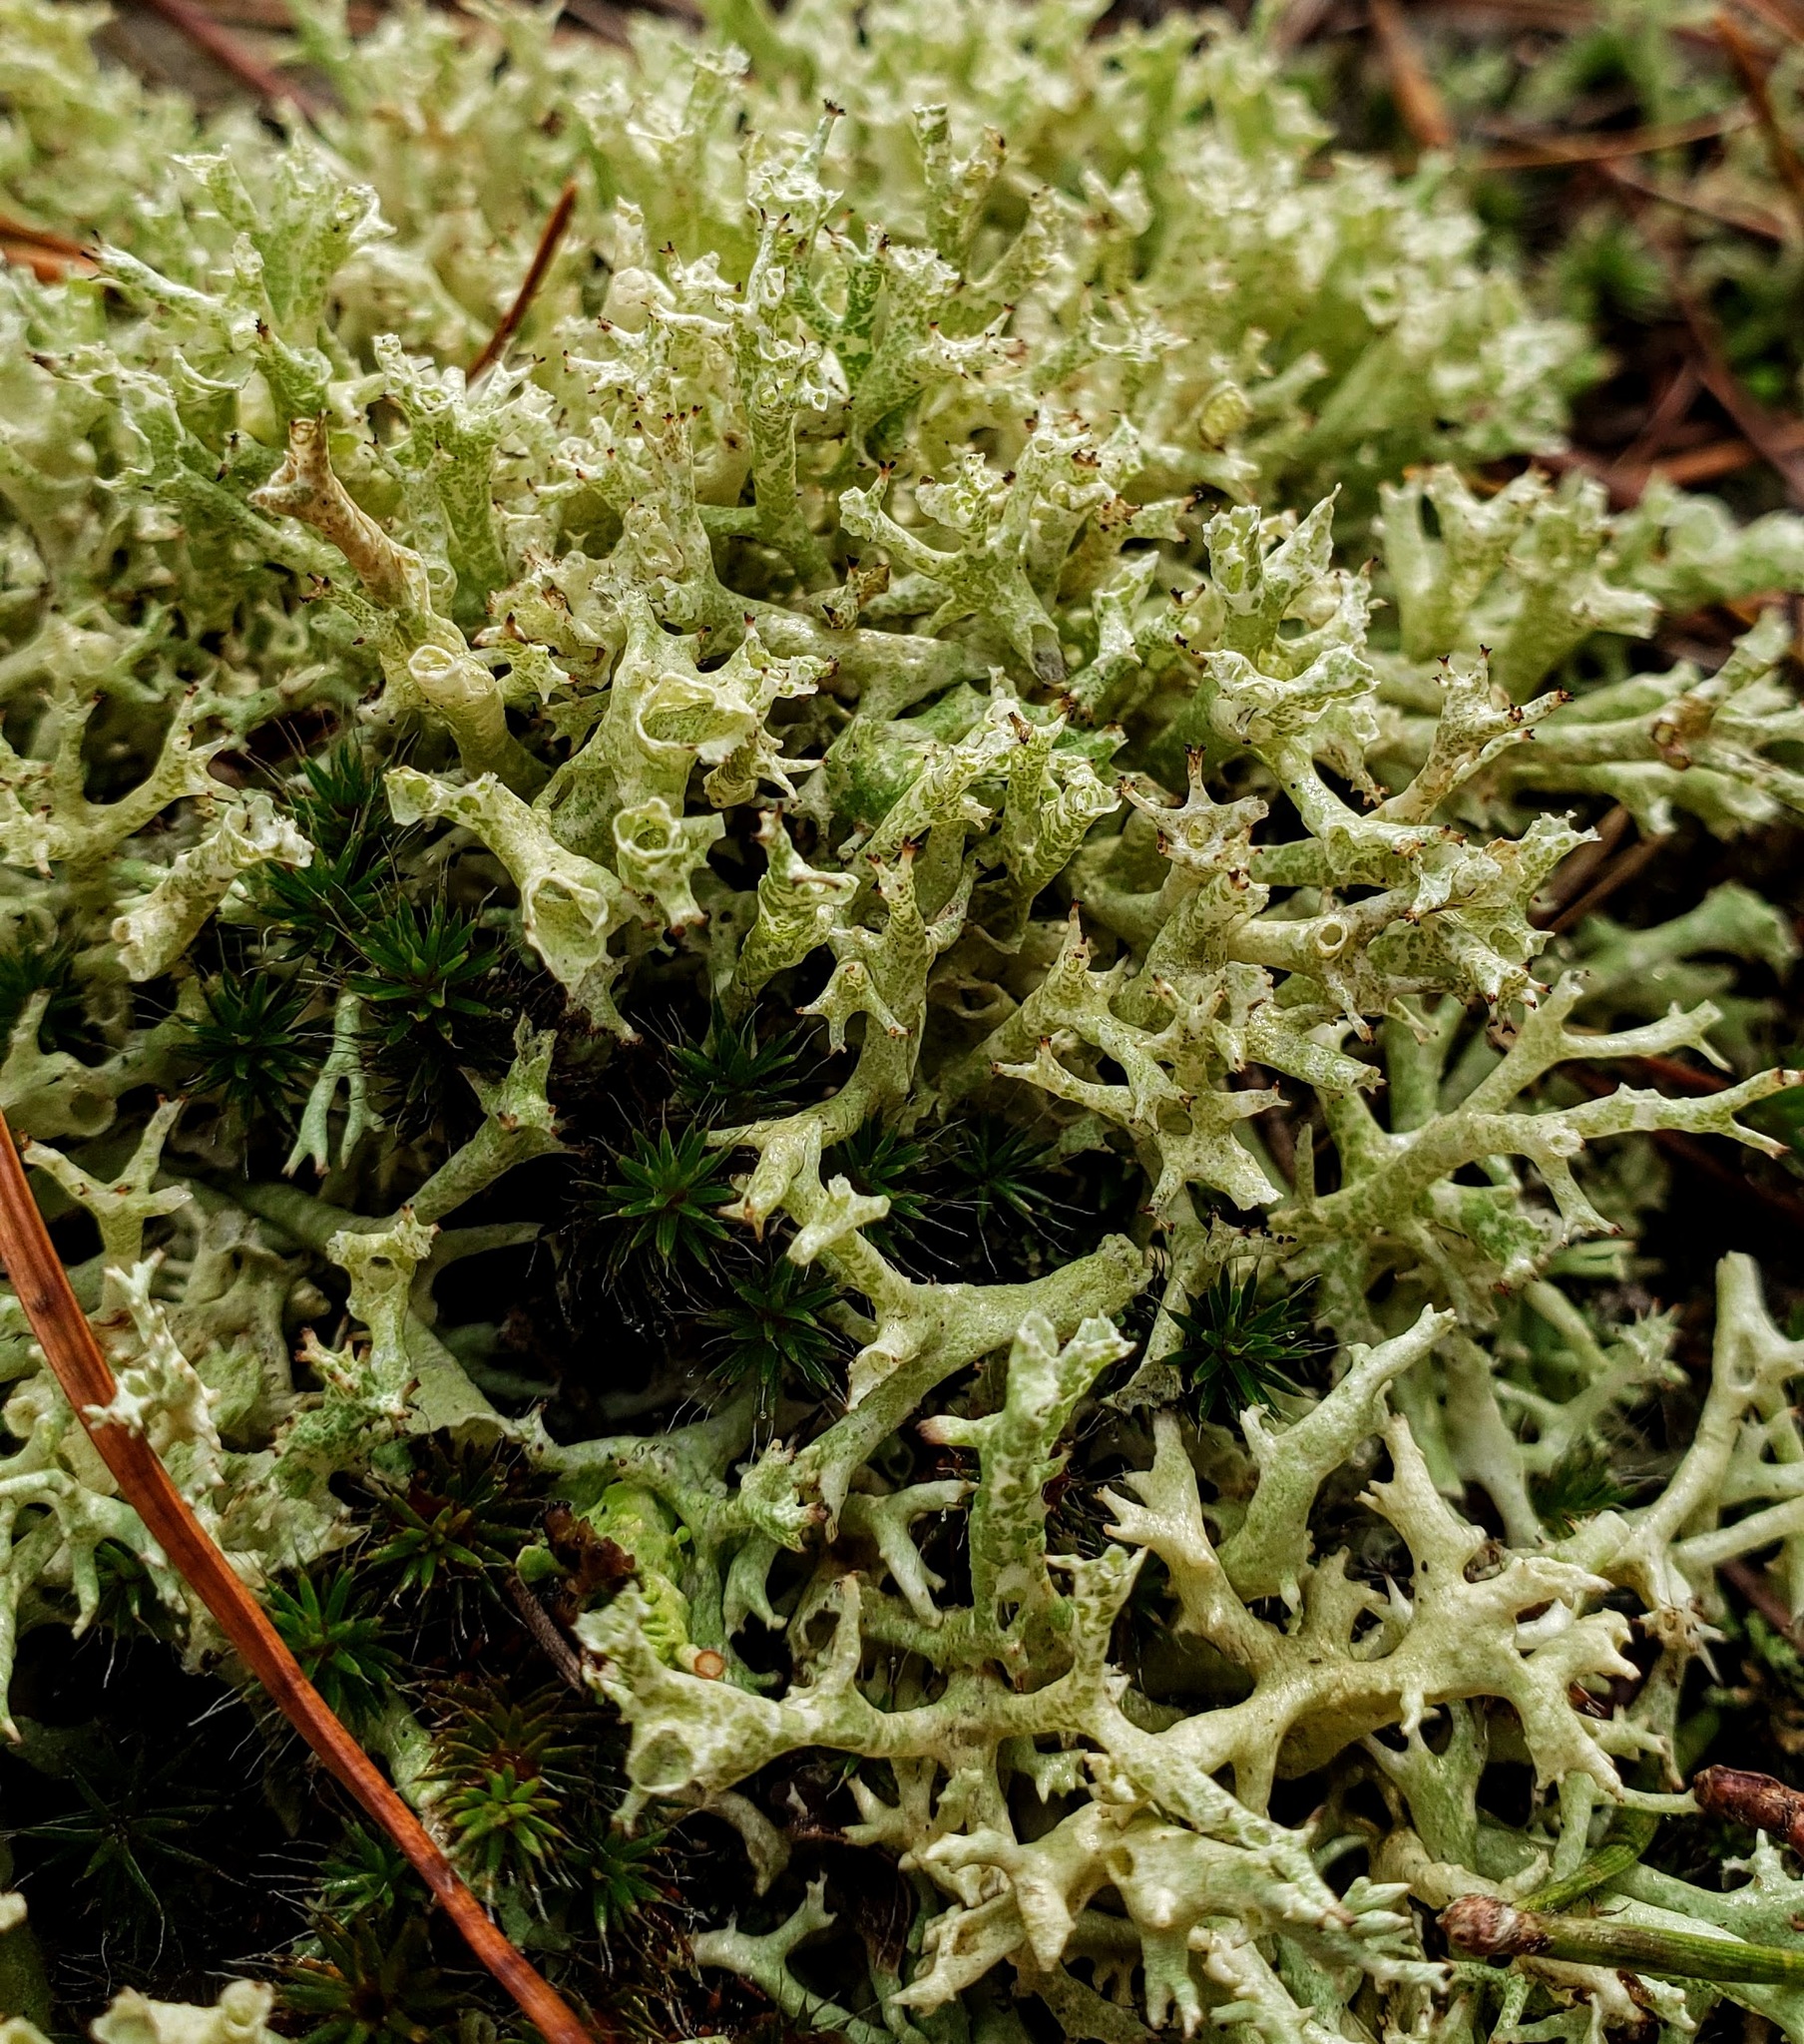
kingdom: Fungi
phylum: Ascomycota
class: Lecanoromycetes
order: Lecanorales
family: Cladoniaceae
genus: Cladonia
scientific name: Cladonia uncialis
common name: Thorn lichen
